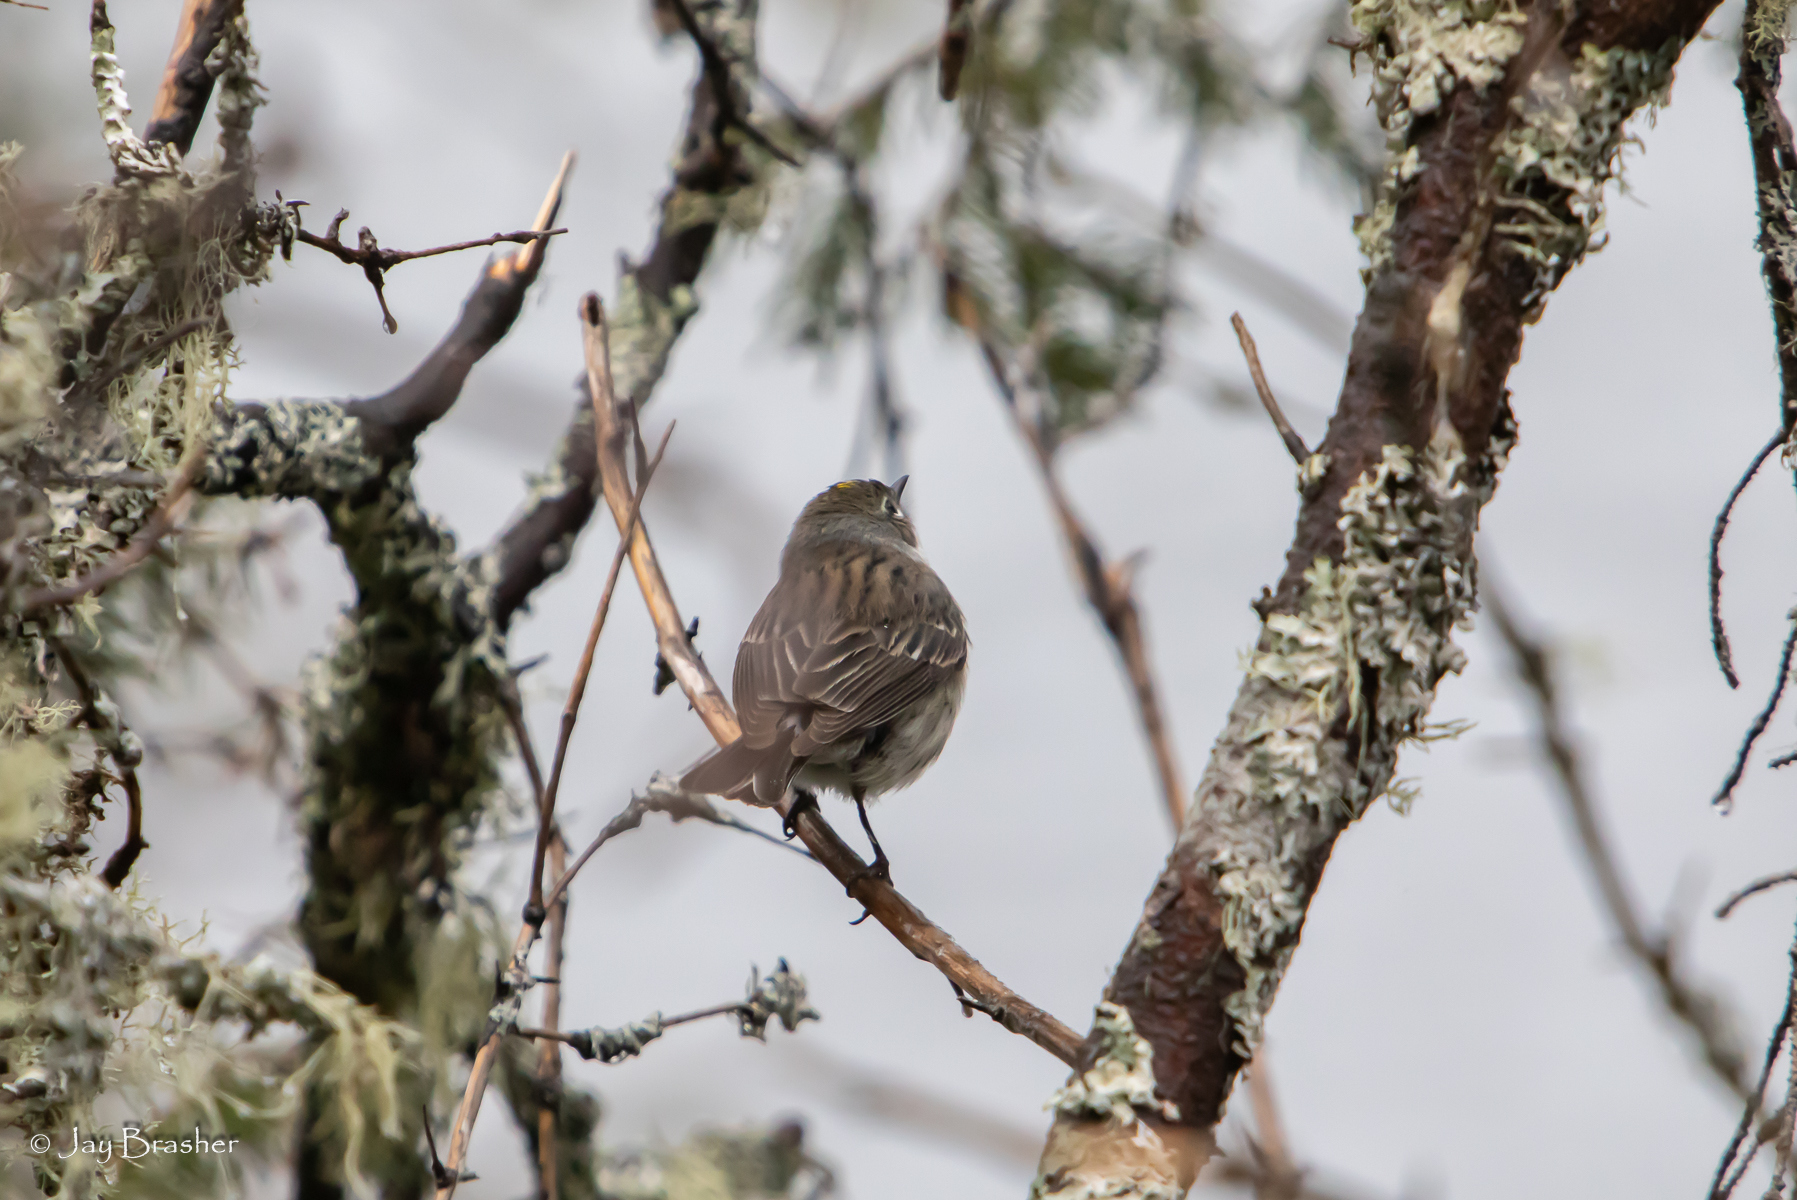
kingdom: Animalia
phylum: Chordata
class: Aves
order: Passeriformes
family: Parulidae
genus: Setophaga
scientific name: Setophaga coronata
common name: Myrtle warbler
